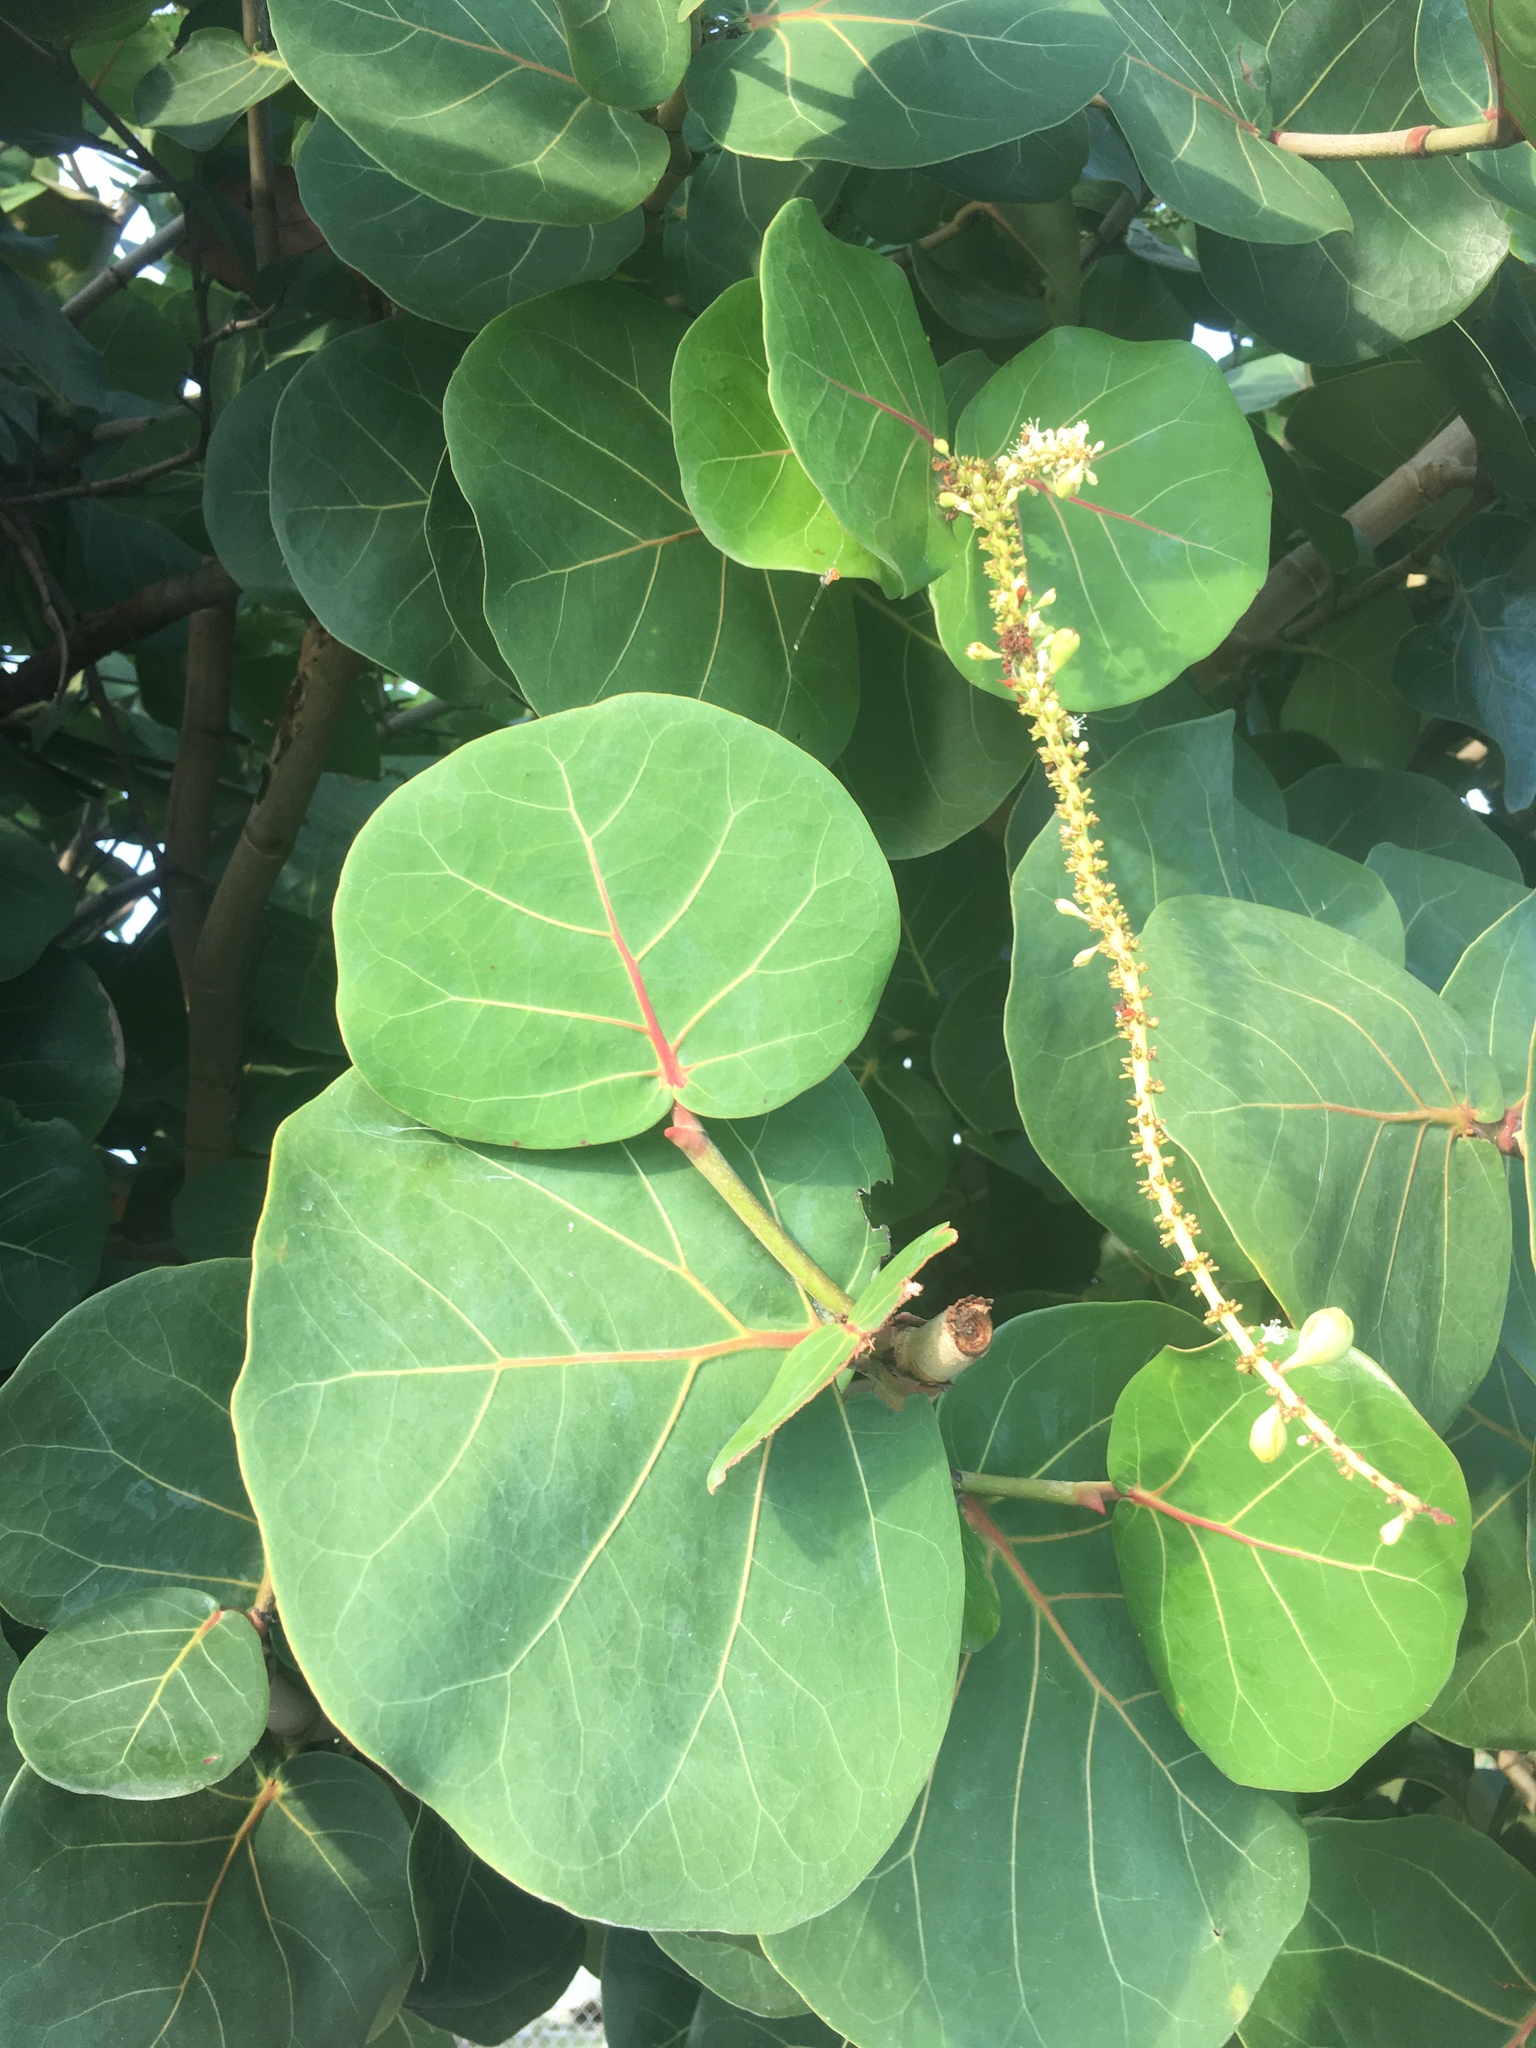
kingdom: Plantae
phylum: Tracheophyta
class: Magnoliopsida
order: Caryophyllales
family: Polygonaceae
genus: Coccoloba
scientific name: Coccoloba uvifera
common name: Seagrape
